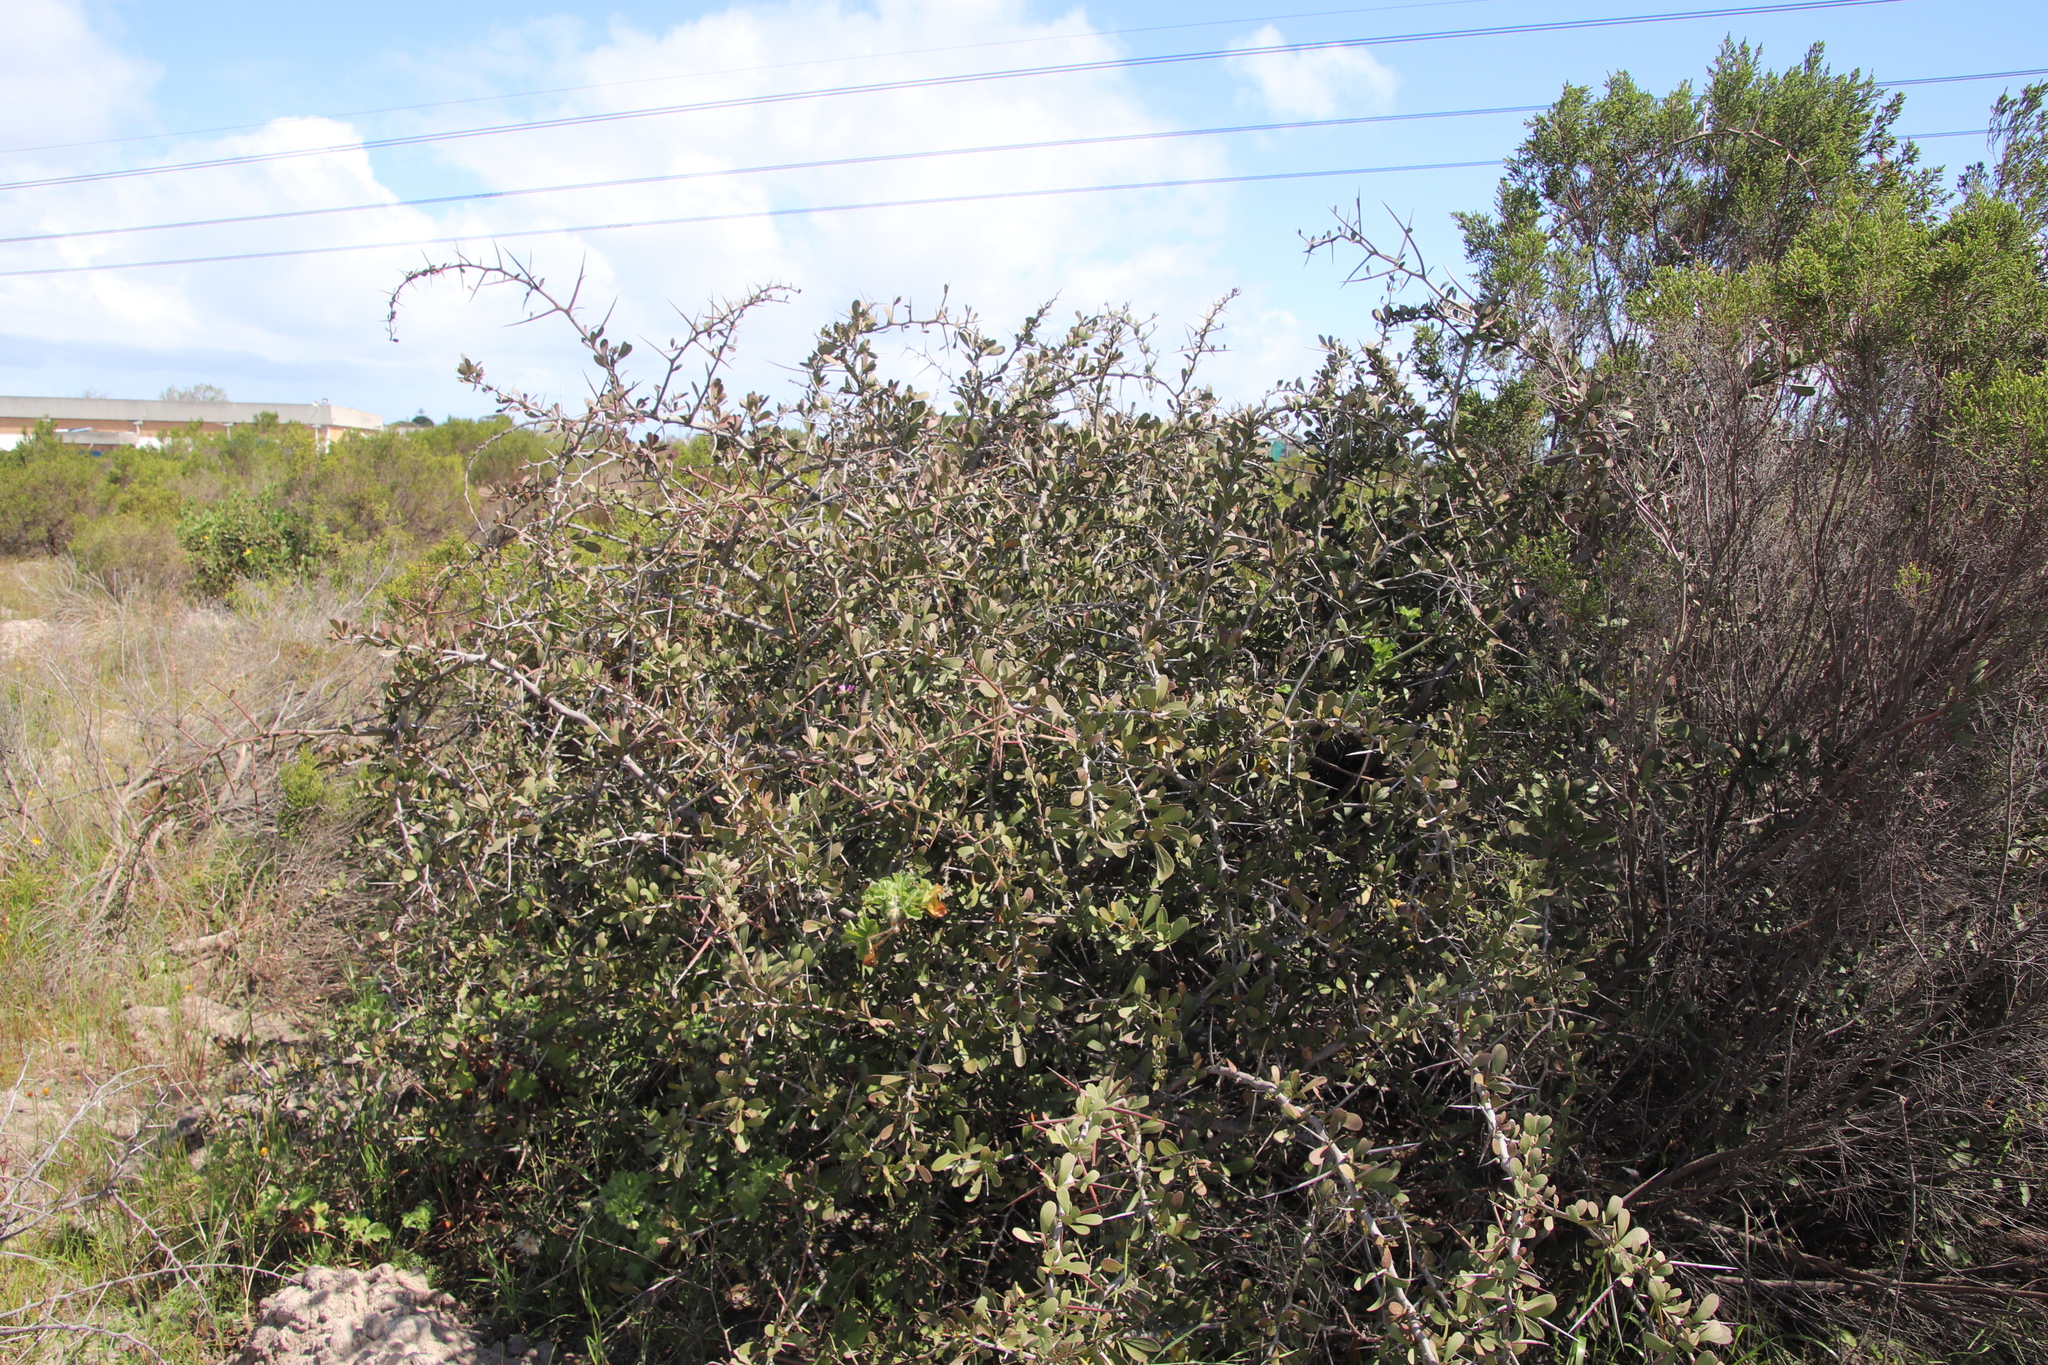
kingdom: Plantae
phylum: Tracheophyta
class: Magnoliopsida
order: Celastrales
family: Celastraceae
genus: Gymnosporia
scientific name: Gymnosporia buxifolia
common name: Common spike-thorn
